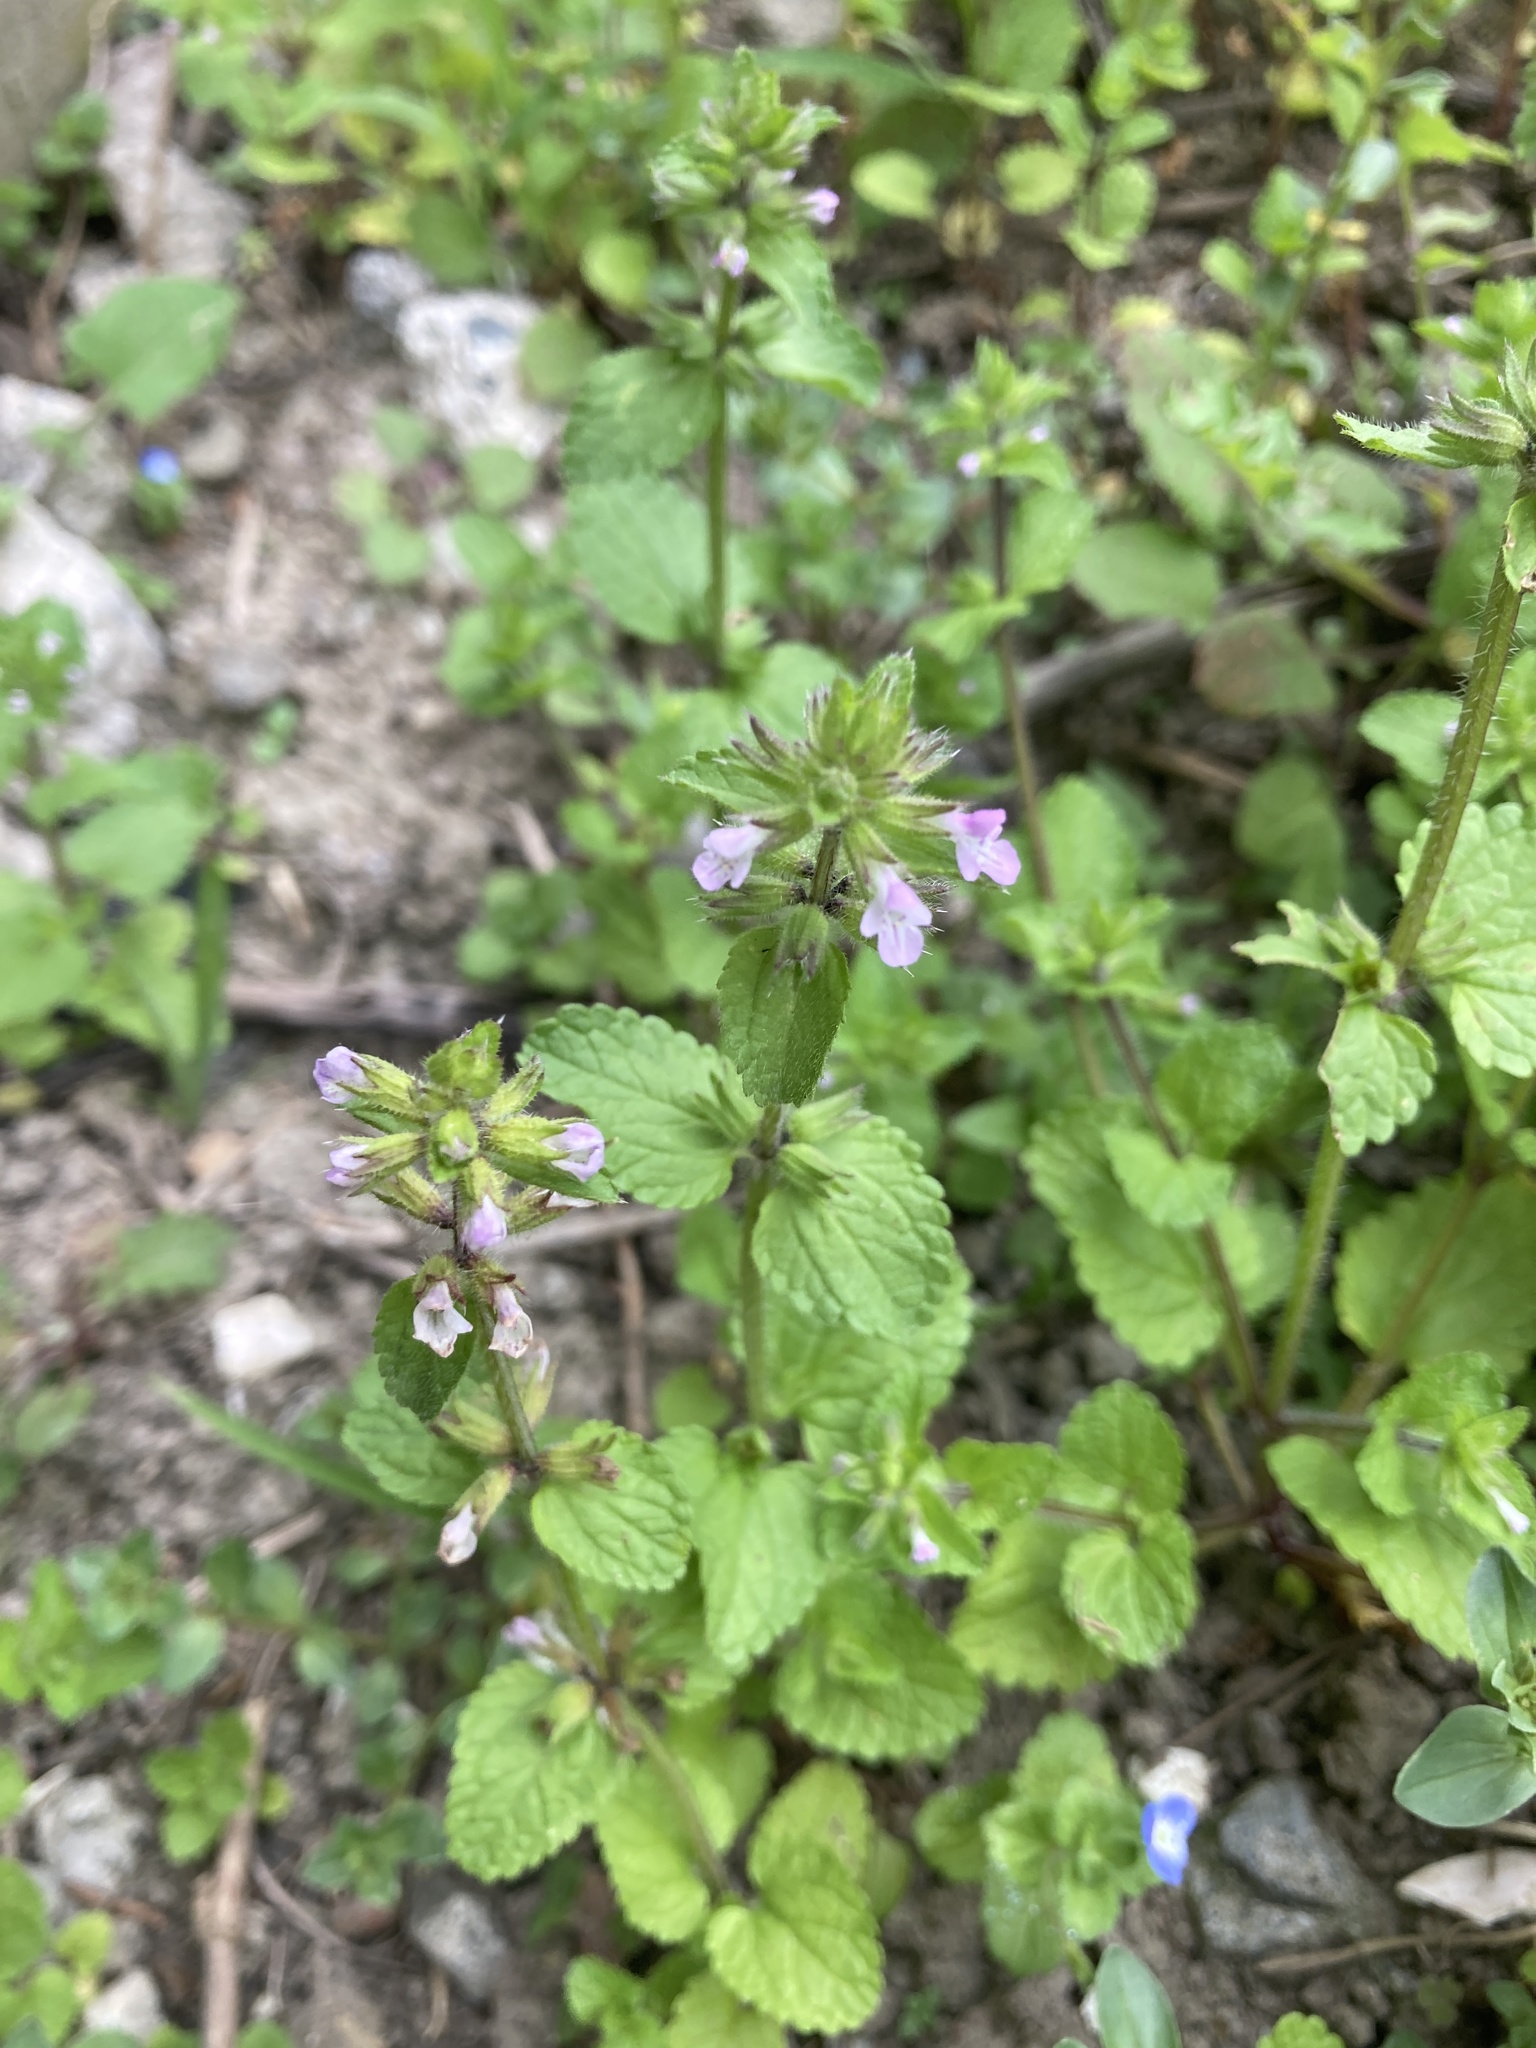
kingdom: Plantae
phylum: Tracheophyta
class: Magnoliopsida
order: Lamiales
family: Lamiaceae
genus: Stachys
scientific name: Stachys arvensis
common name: Field woundwort
